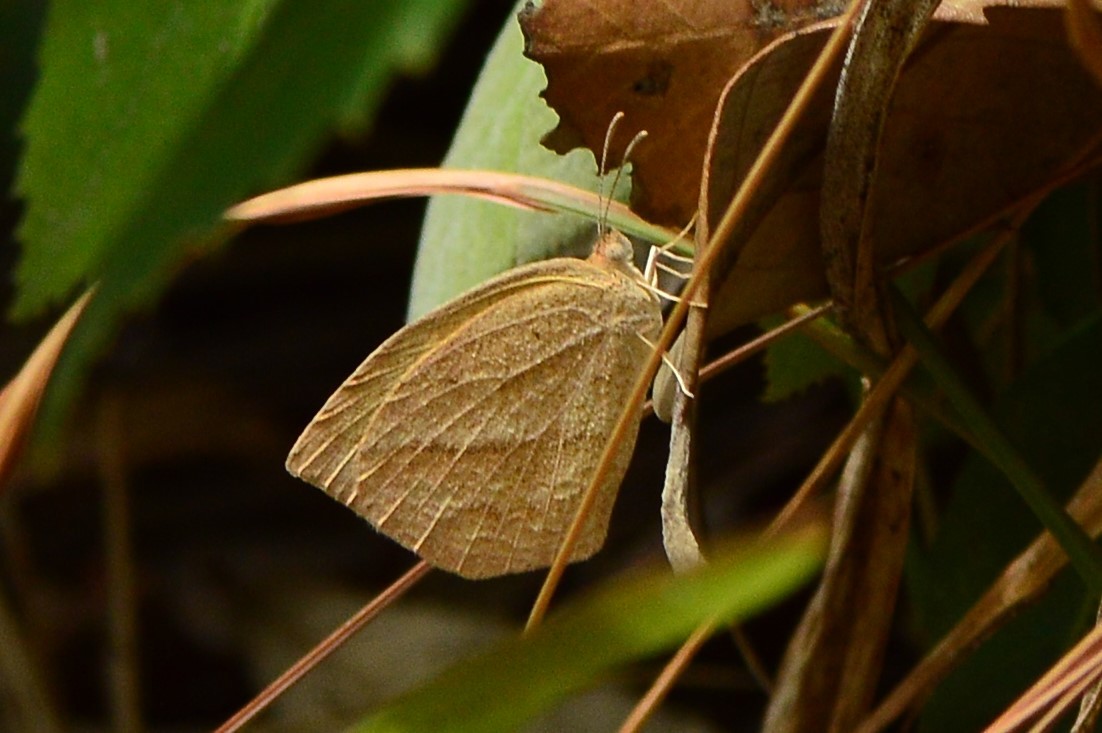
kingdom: Animalia
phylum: Arthropoda
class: Insecta
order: Lepidoptera
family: Pieridae
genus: Eurema
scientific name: Eurema laeta
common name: Spotless grass yellow
